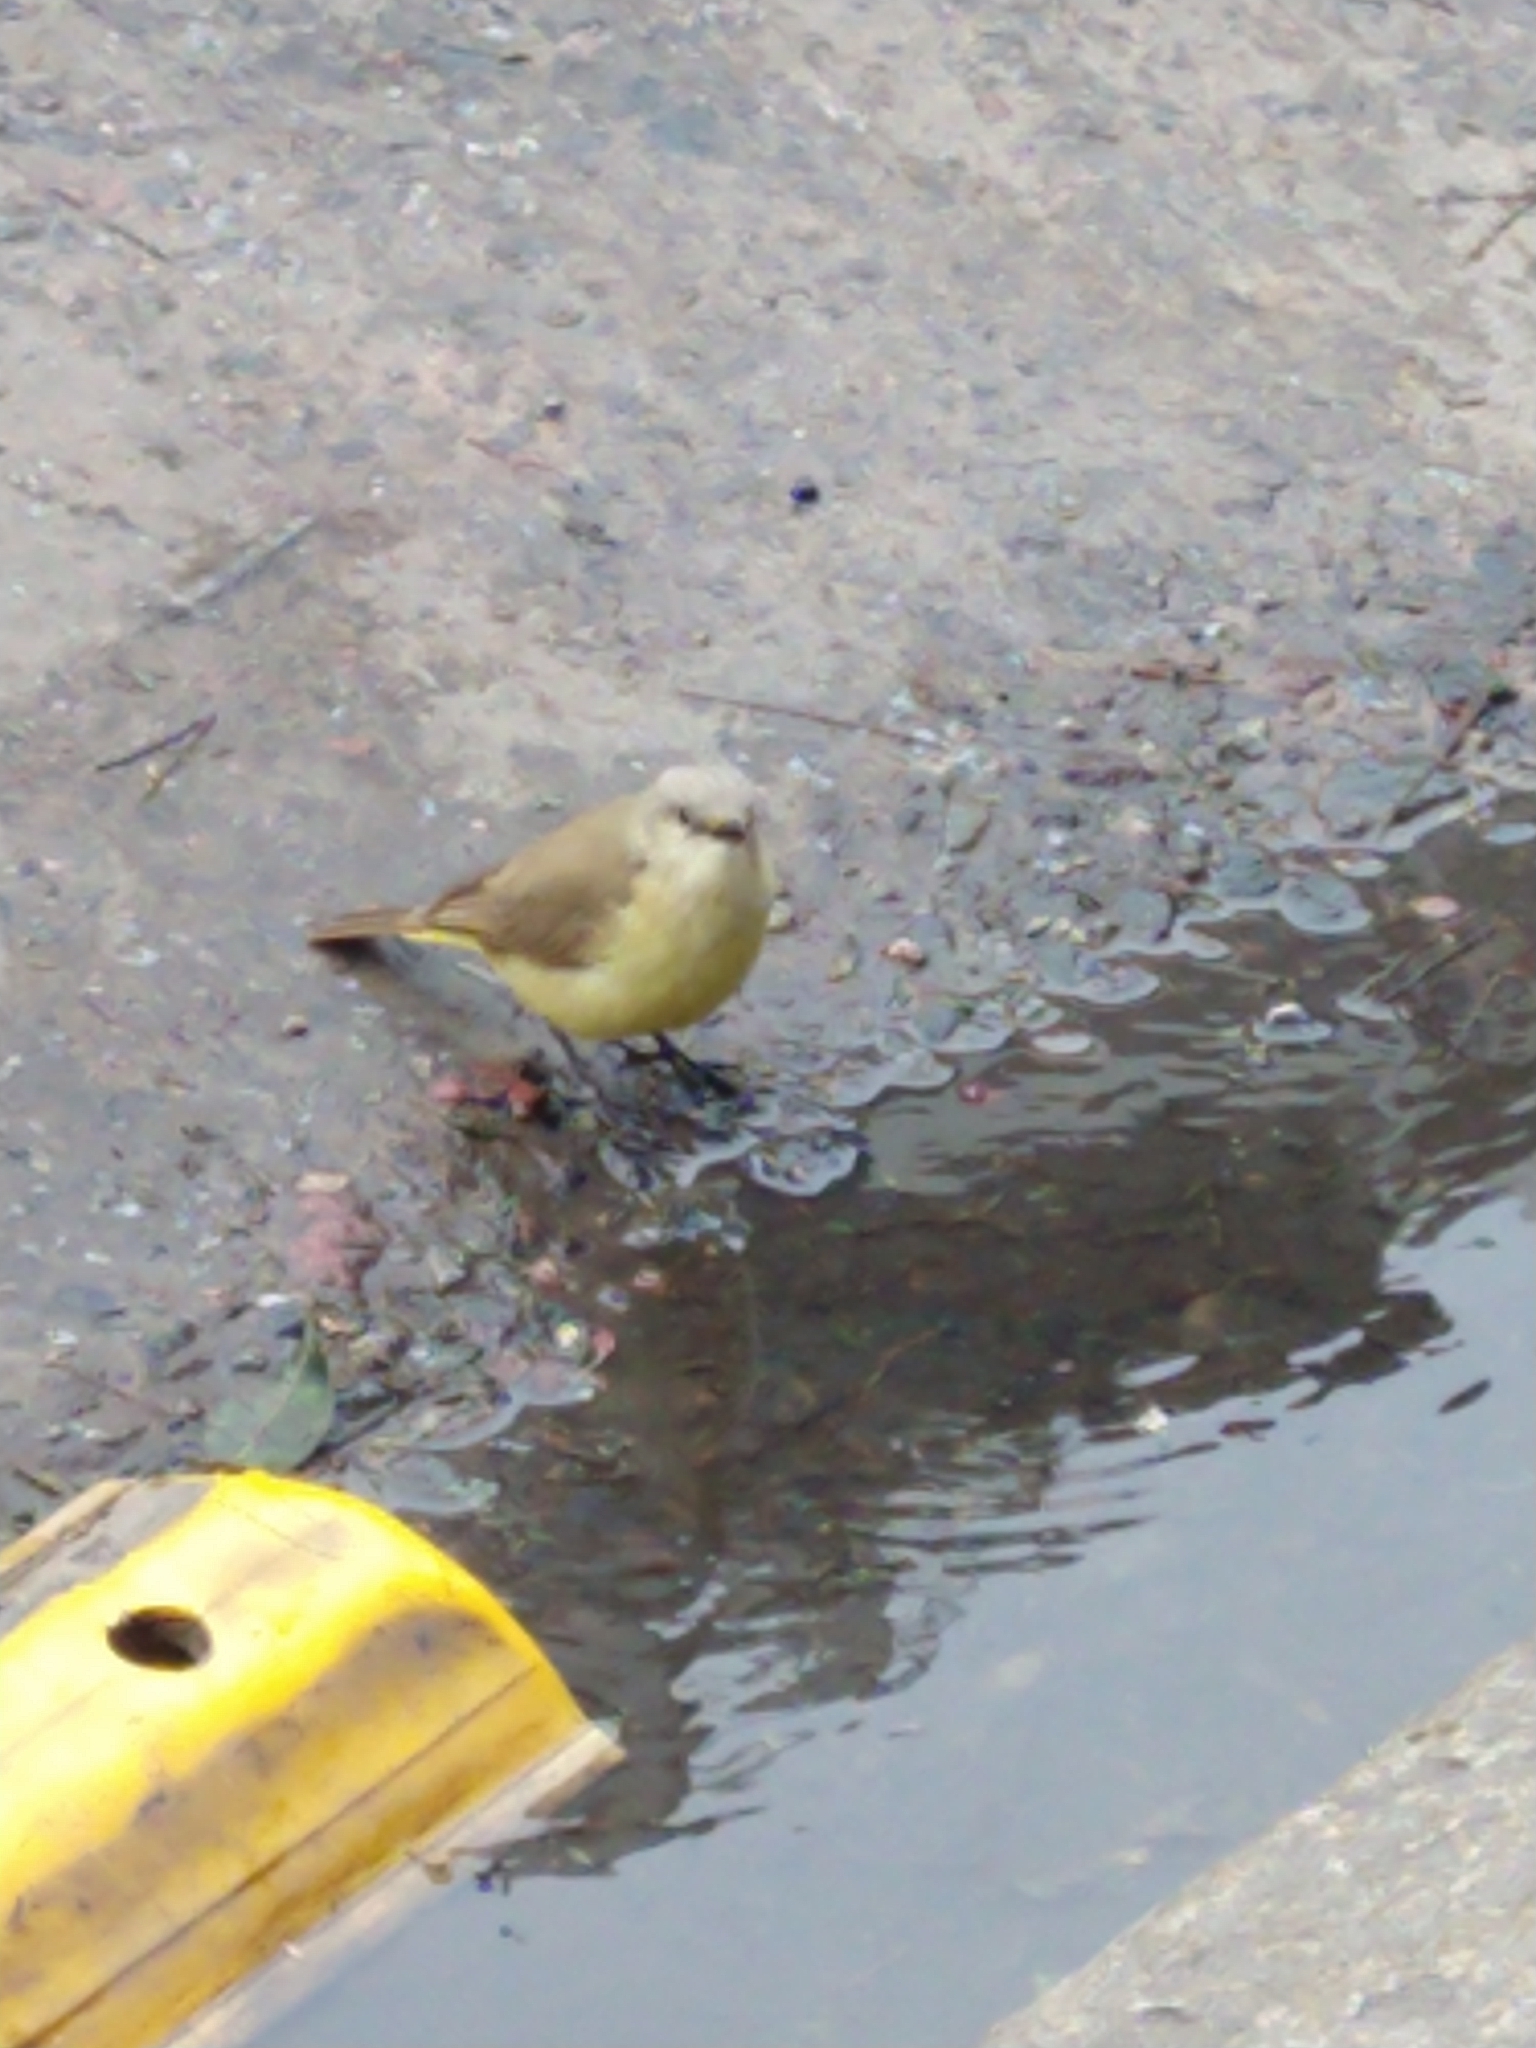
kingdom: Animalia
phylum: Chordata
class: Aves
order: Passeriformes
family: Tyrannidae
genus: Machetornis
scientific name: Machetornis rixosa
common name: Cattle tyrant
